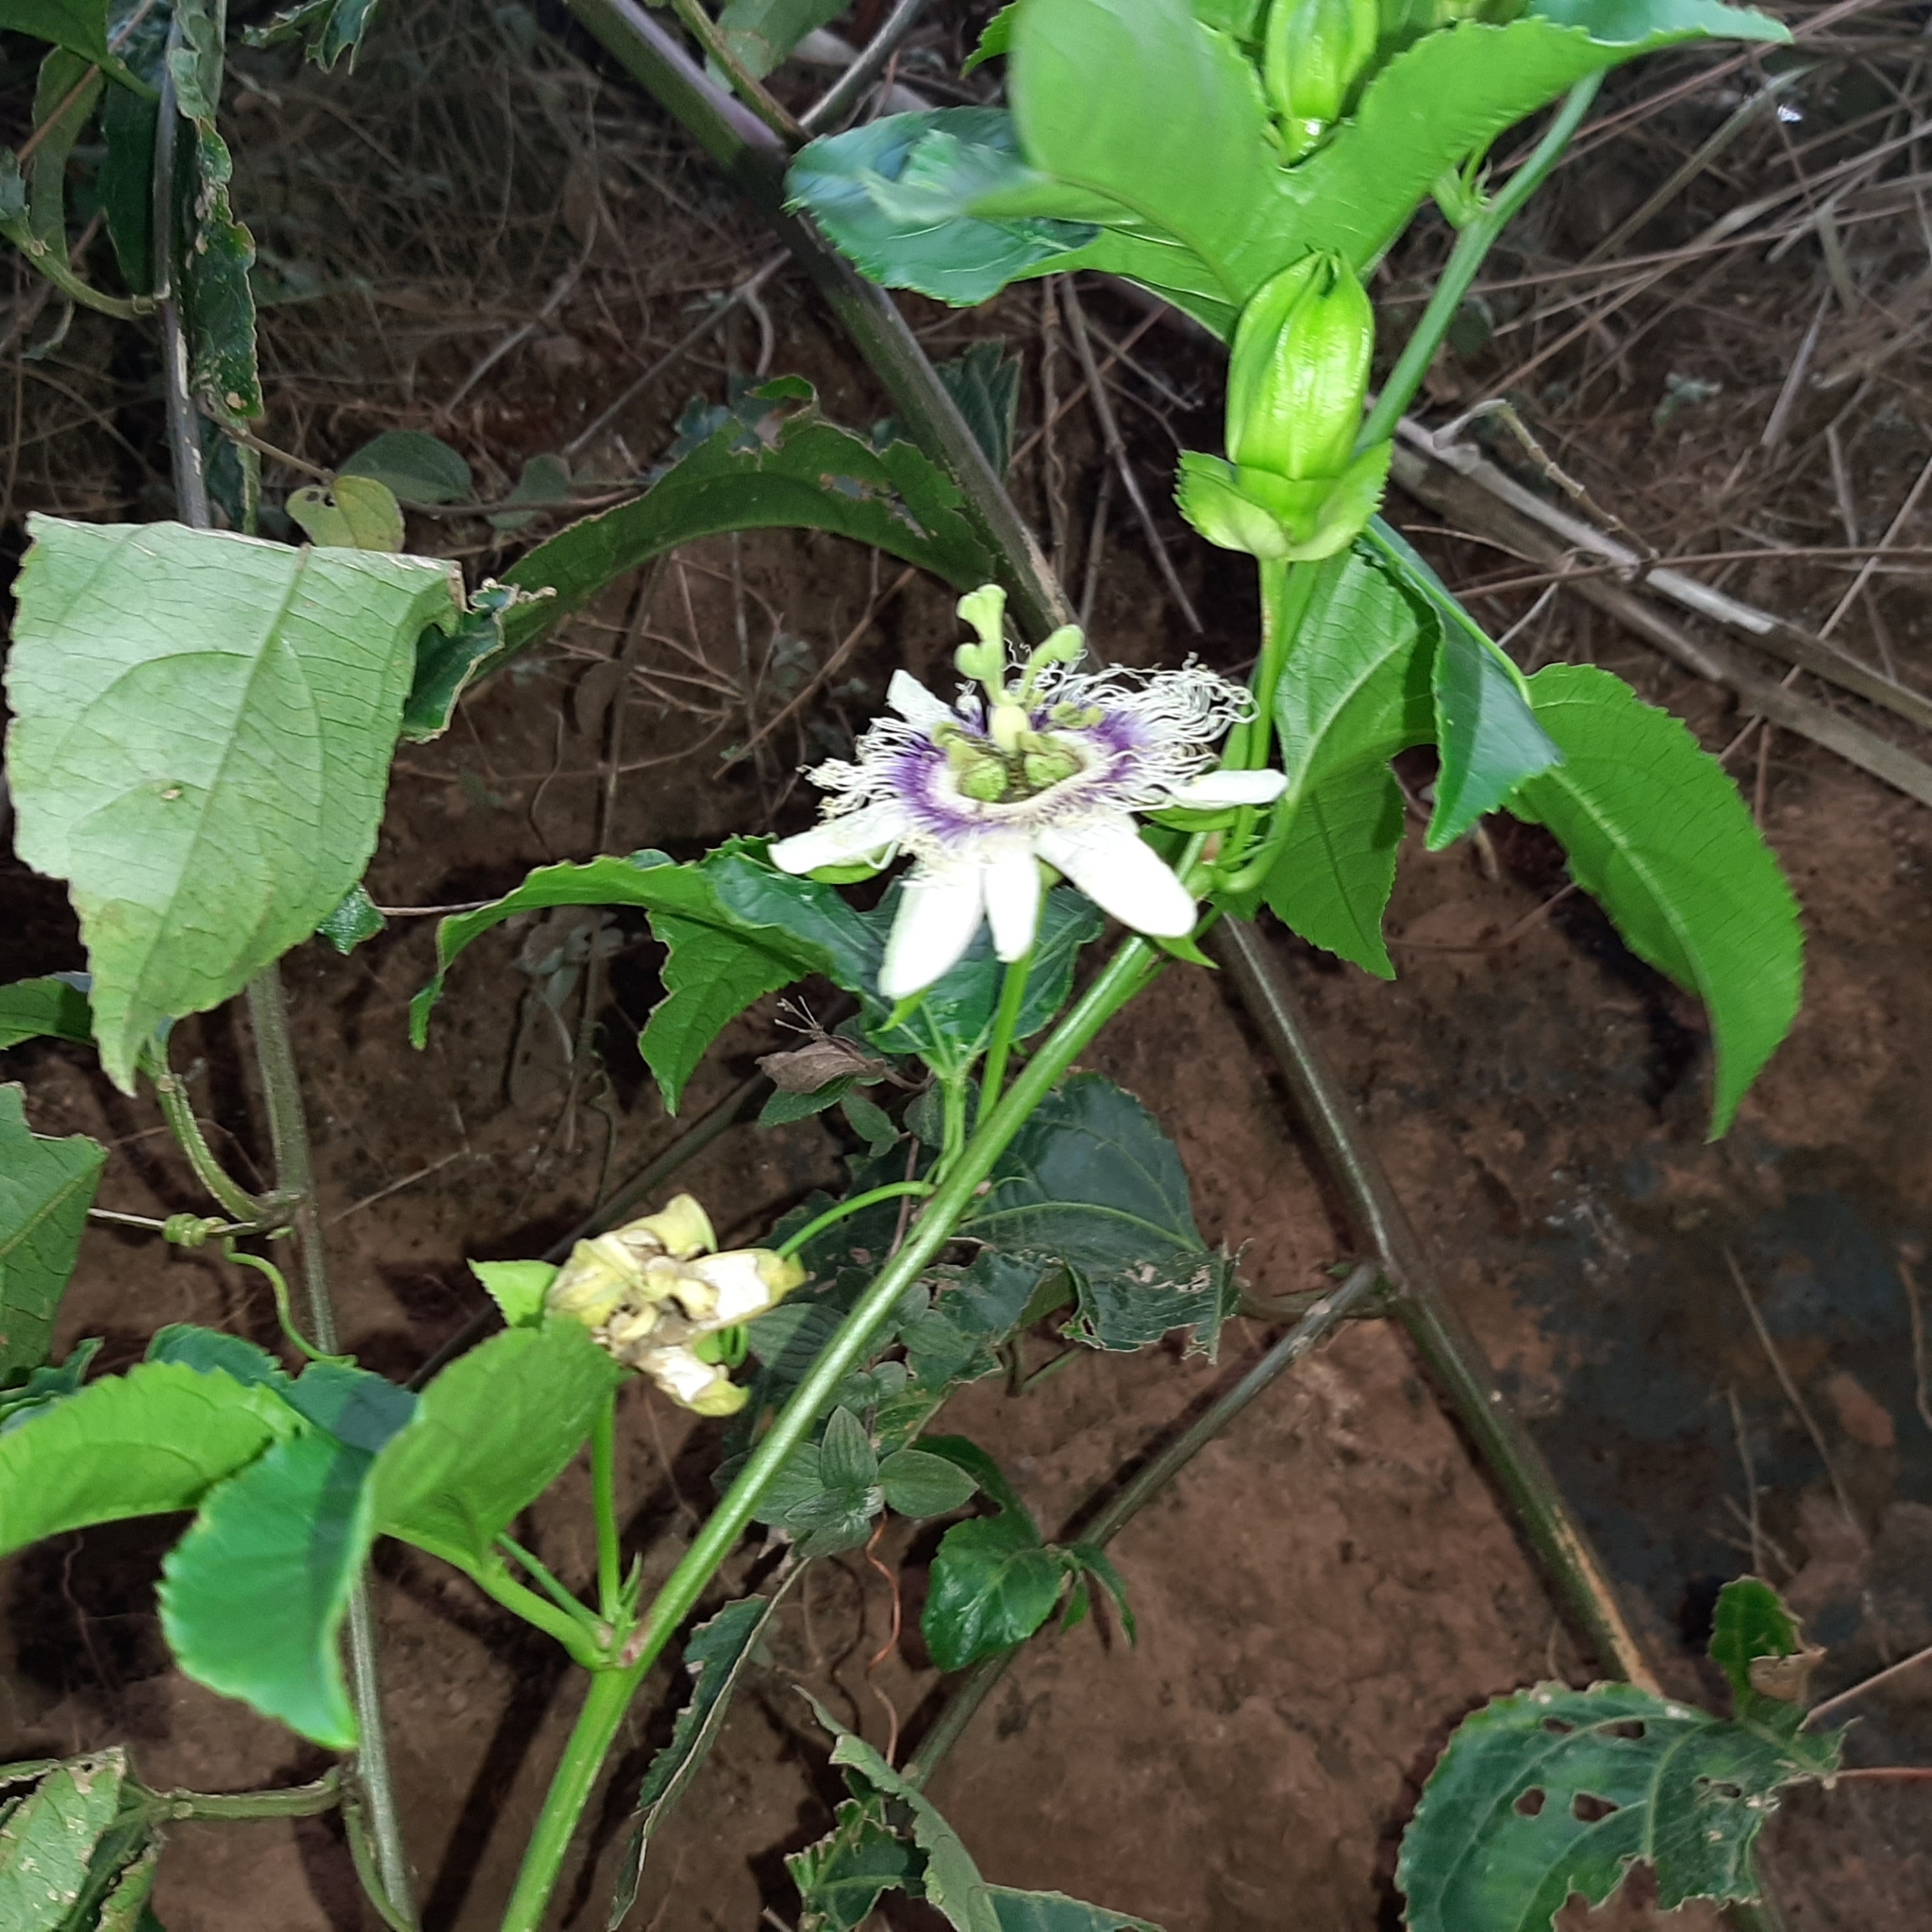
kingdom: Plantae
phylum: Tracheophyta
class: Magnoliopsida
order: Malpighiales
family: Passifloraceae
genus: Passiflora
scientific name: Passiflora edulis
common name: Purple granadilla
